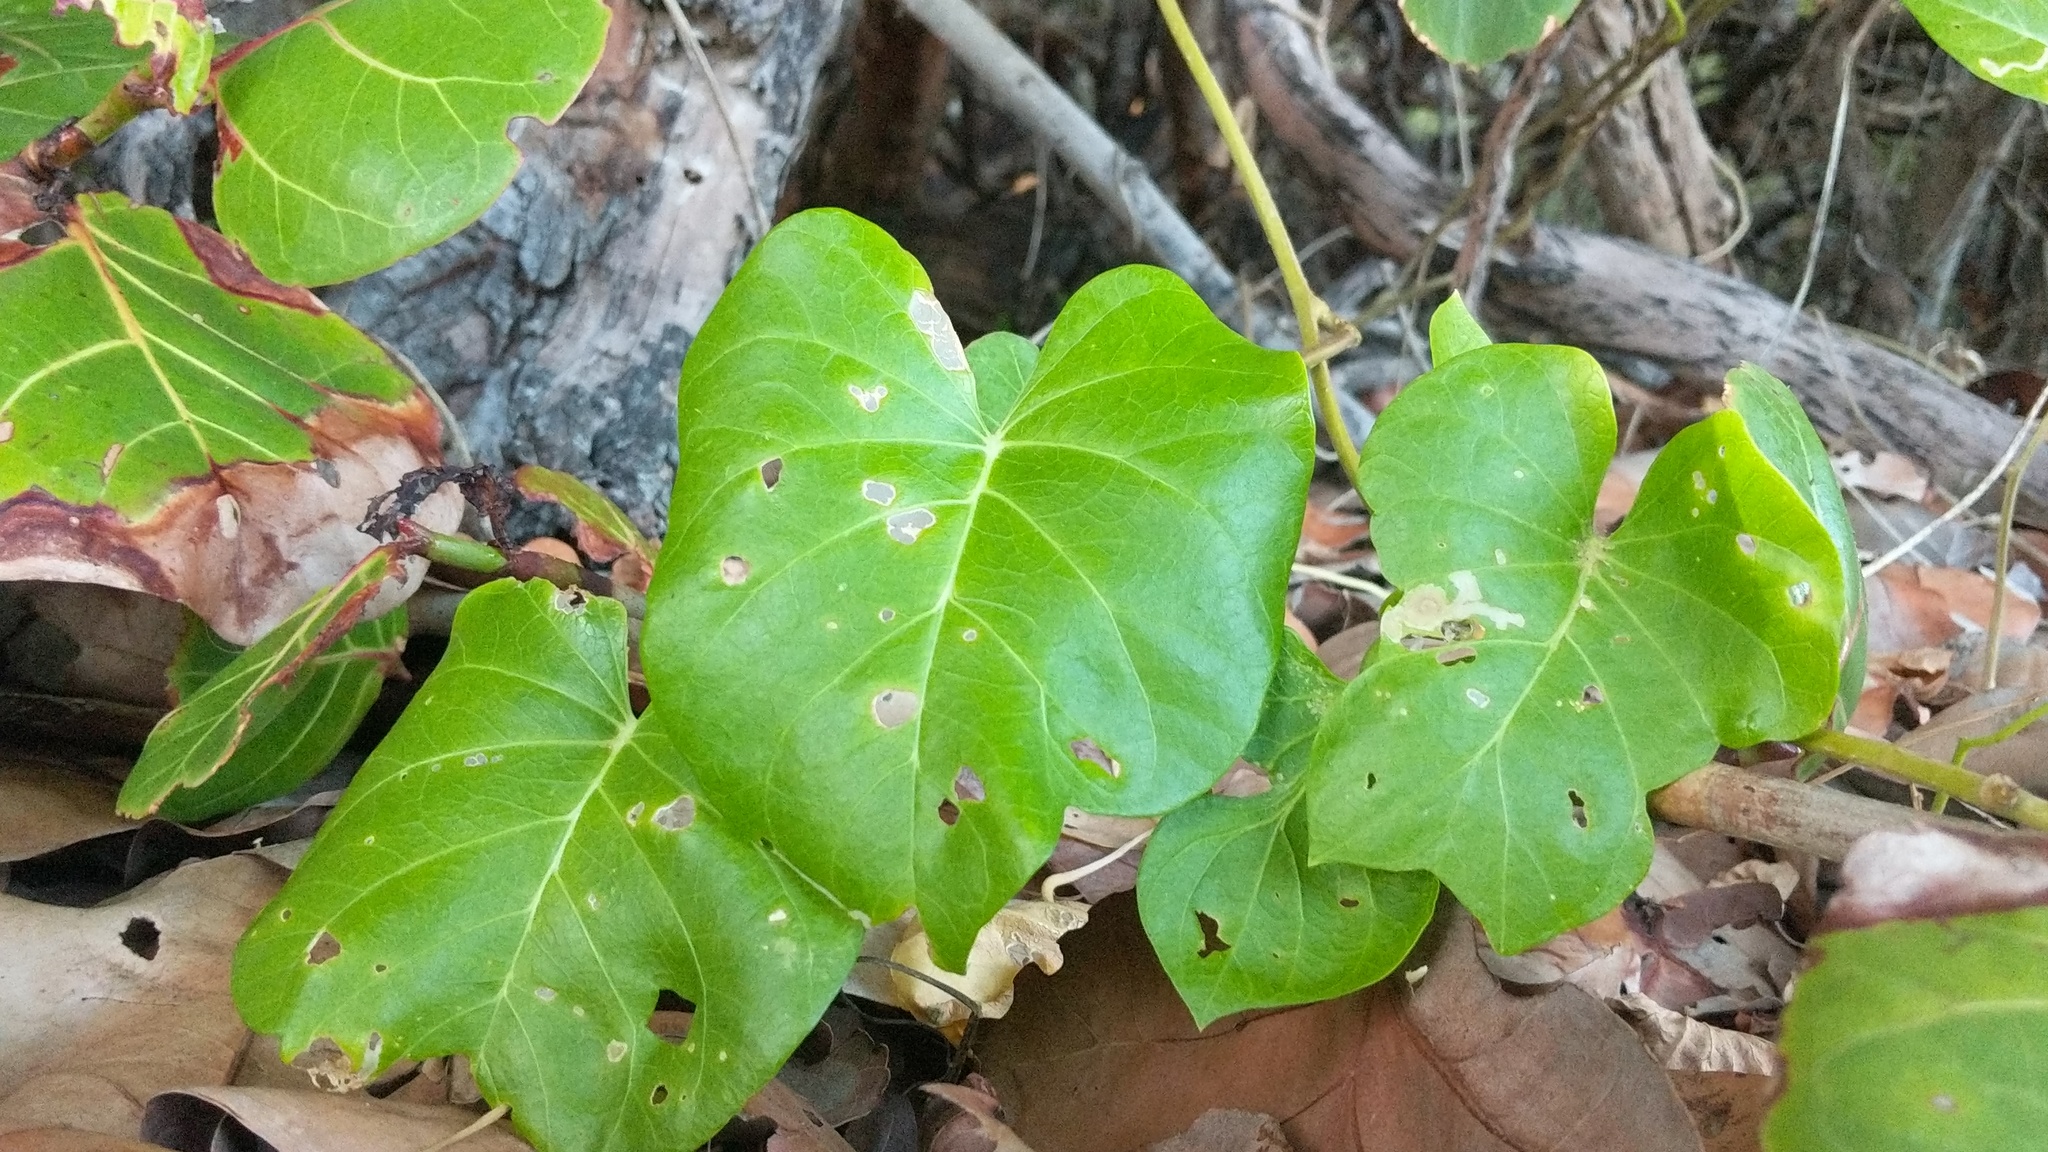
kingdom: Plantae
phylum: Tracheophyta
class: Magnoliopsida
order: Solanales
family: Convolvulaceae
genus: Ipomoea
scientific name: Ipomoea violacea
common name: Beach moonflower
